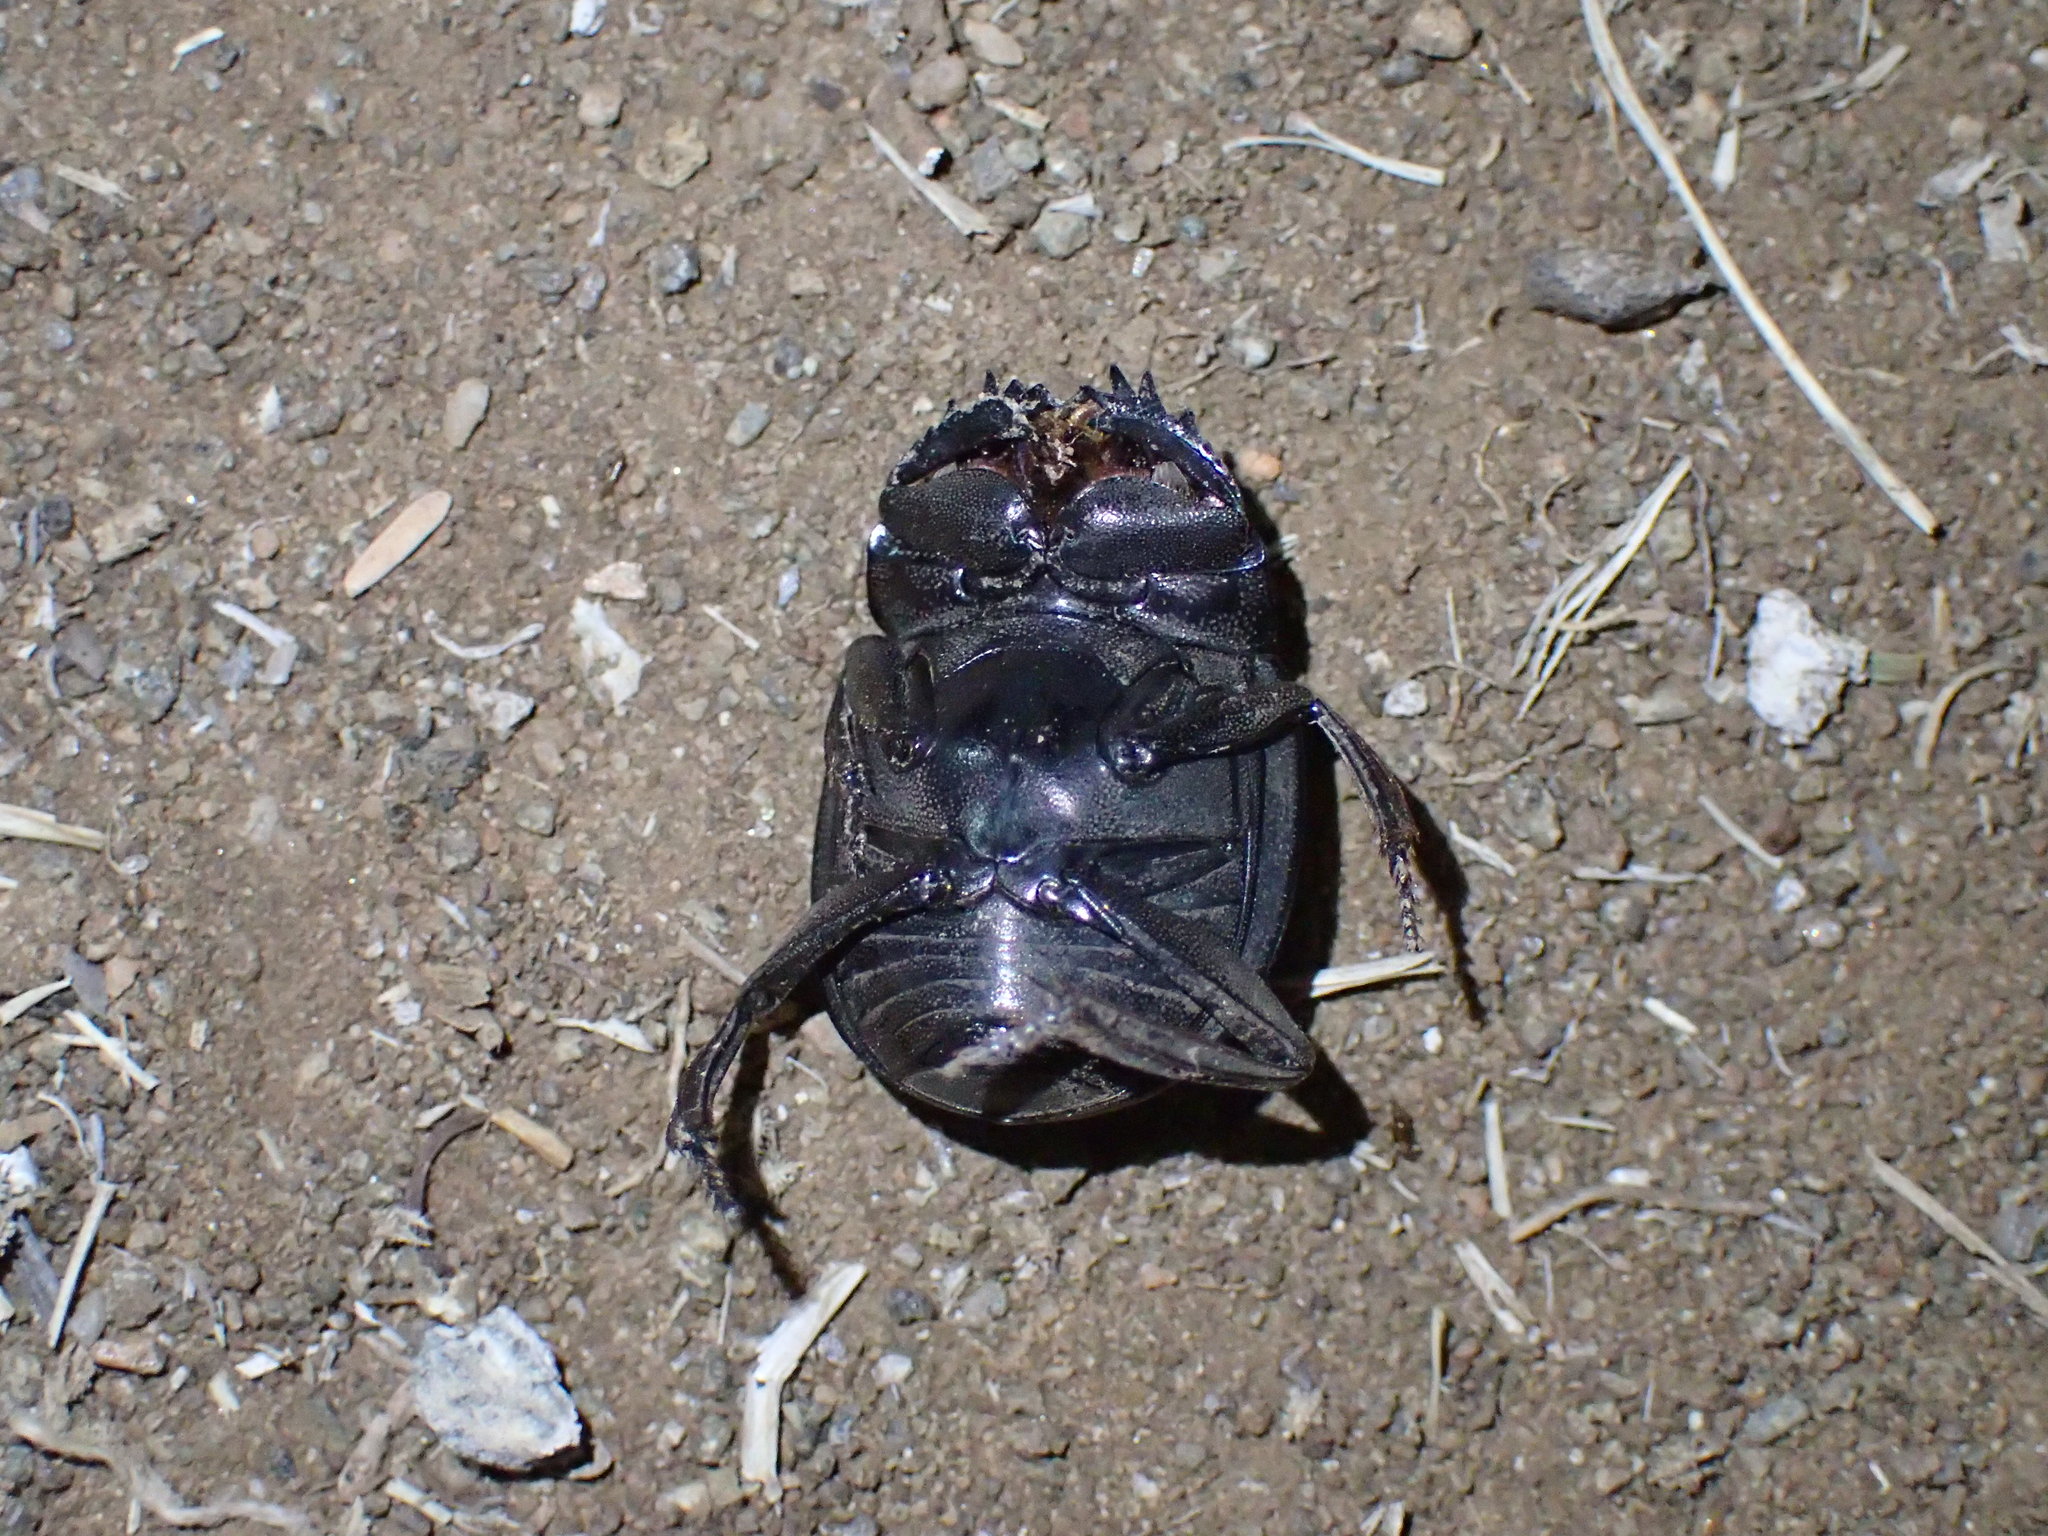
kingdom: Animalia
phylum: Arthropoda
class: Insecta
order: Coleoptera
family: Scarabaeidae
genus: Chalconotus
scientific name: Chalconotus convexus
